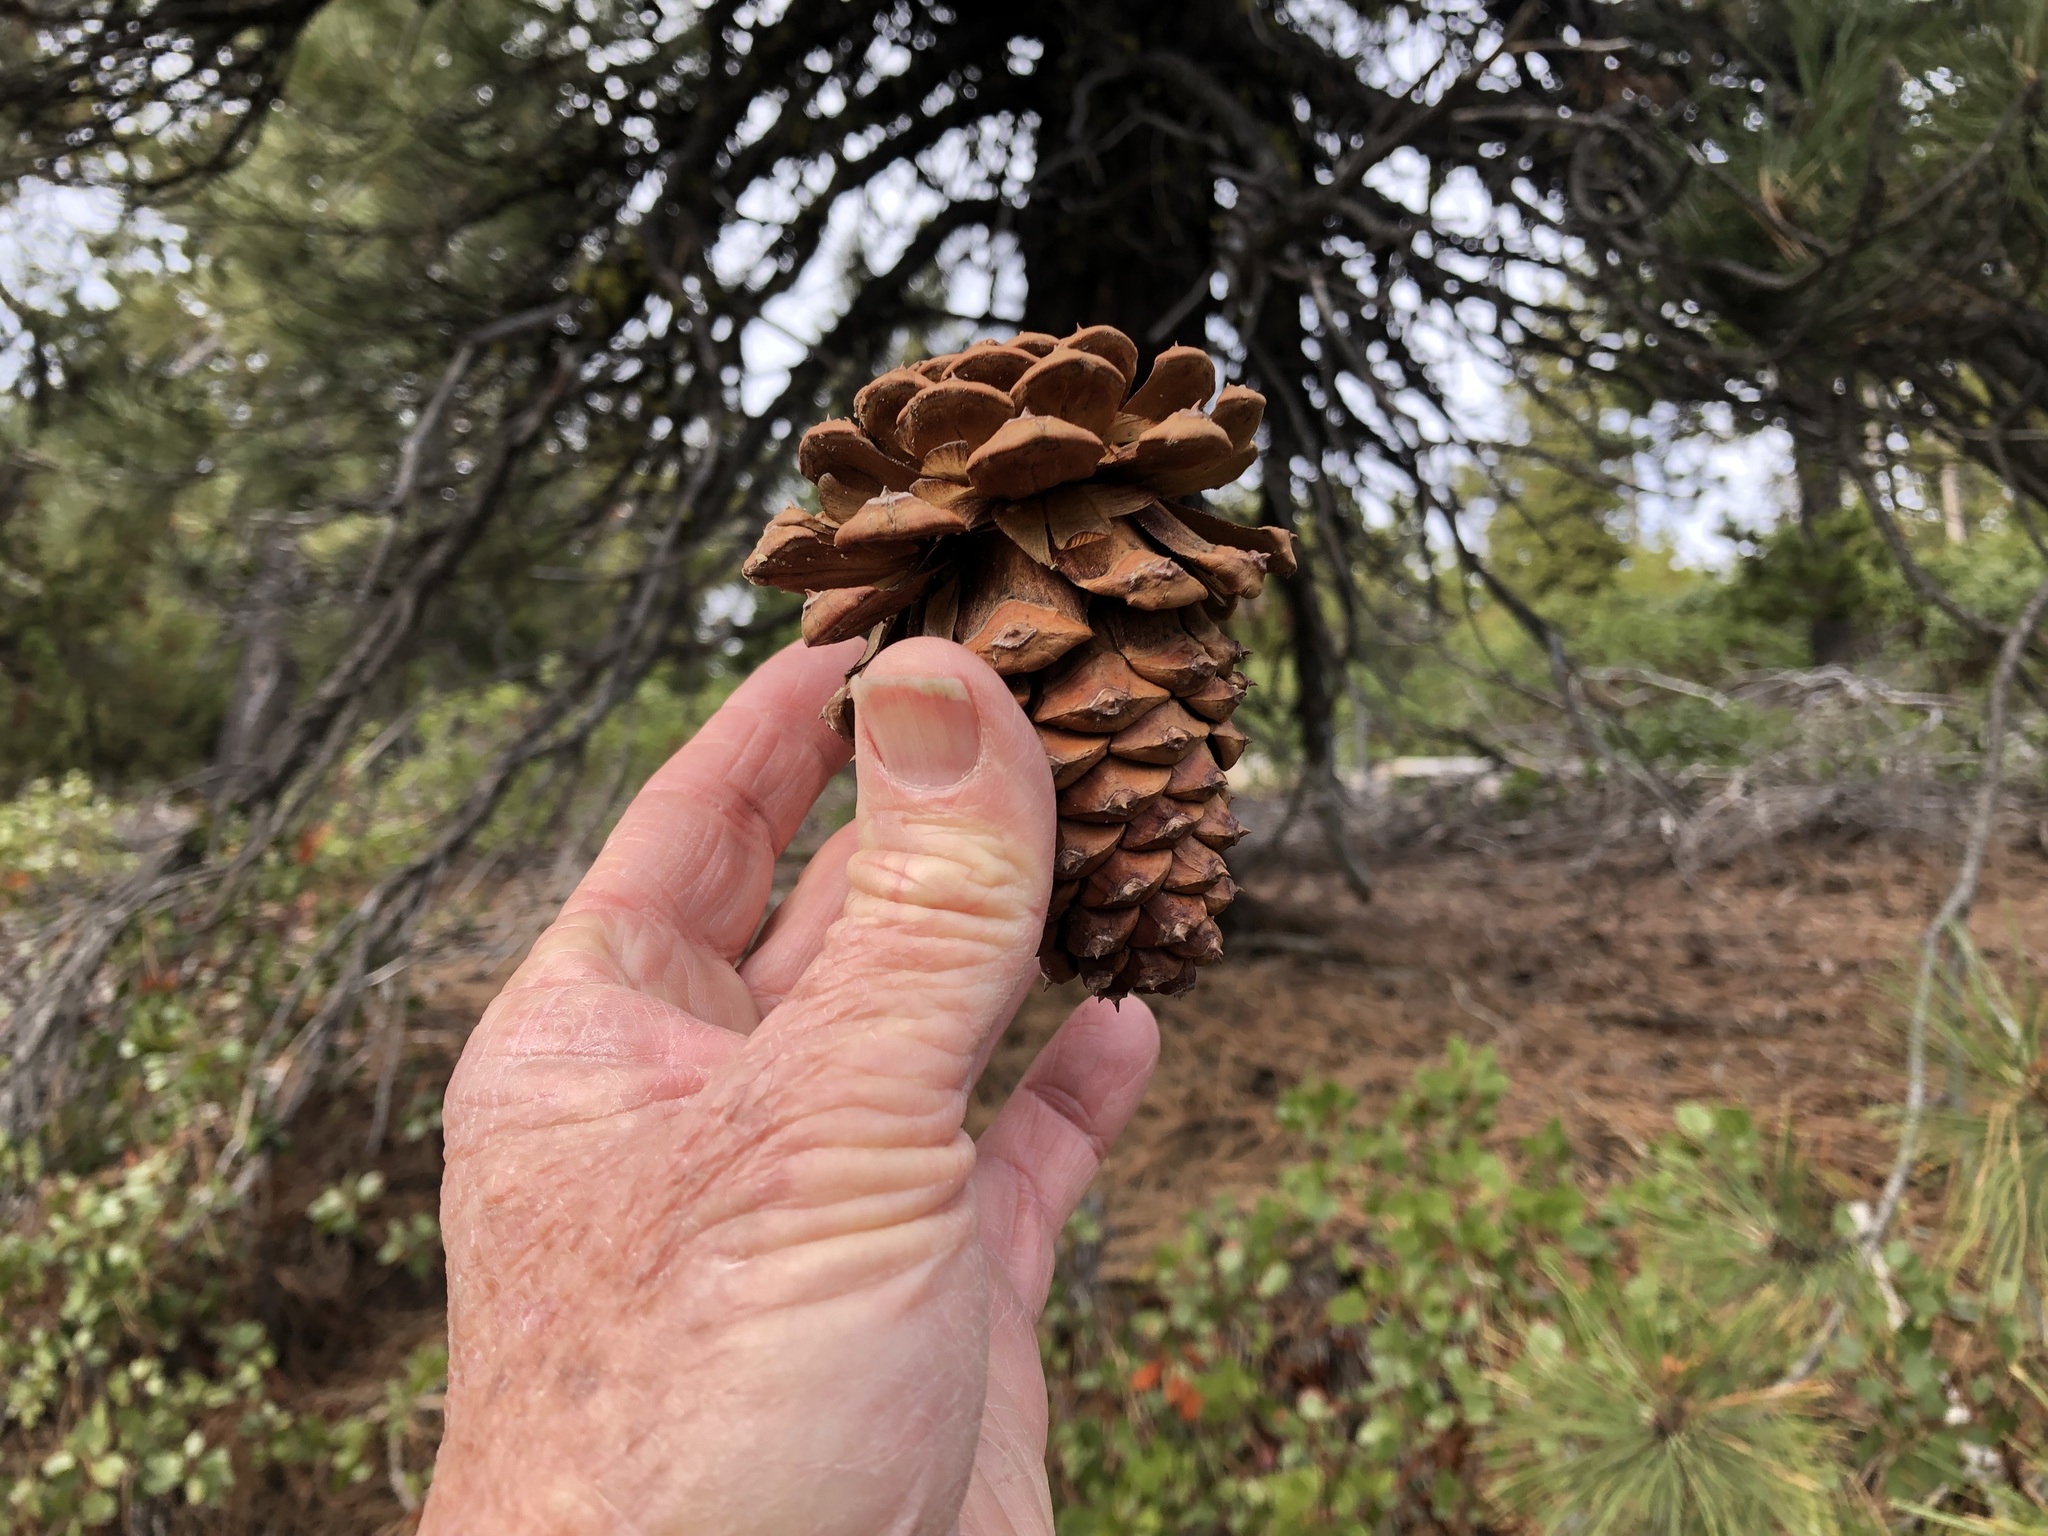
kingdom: Plantae
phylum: Tracheophyta
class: Pinopsida
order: Pinales
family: Pinaceae
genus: Pinus
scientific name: Pinus ponderosa
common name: Western yellow-pine
